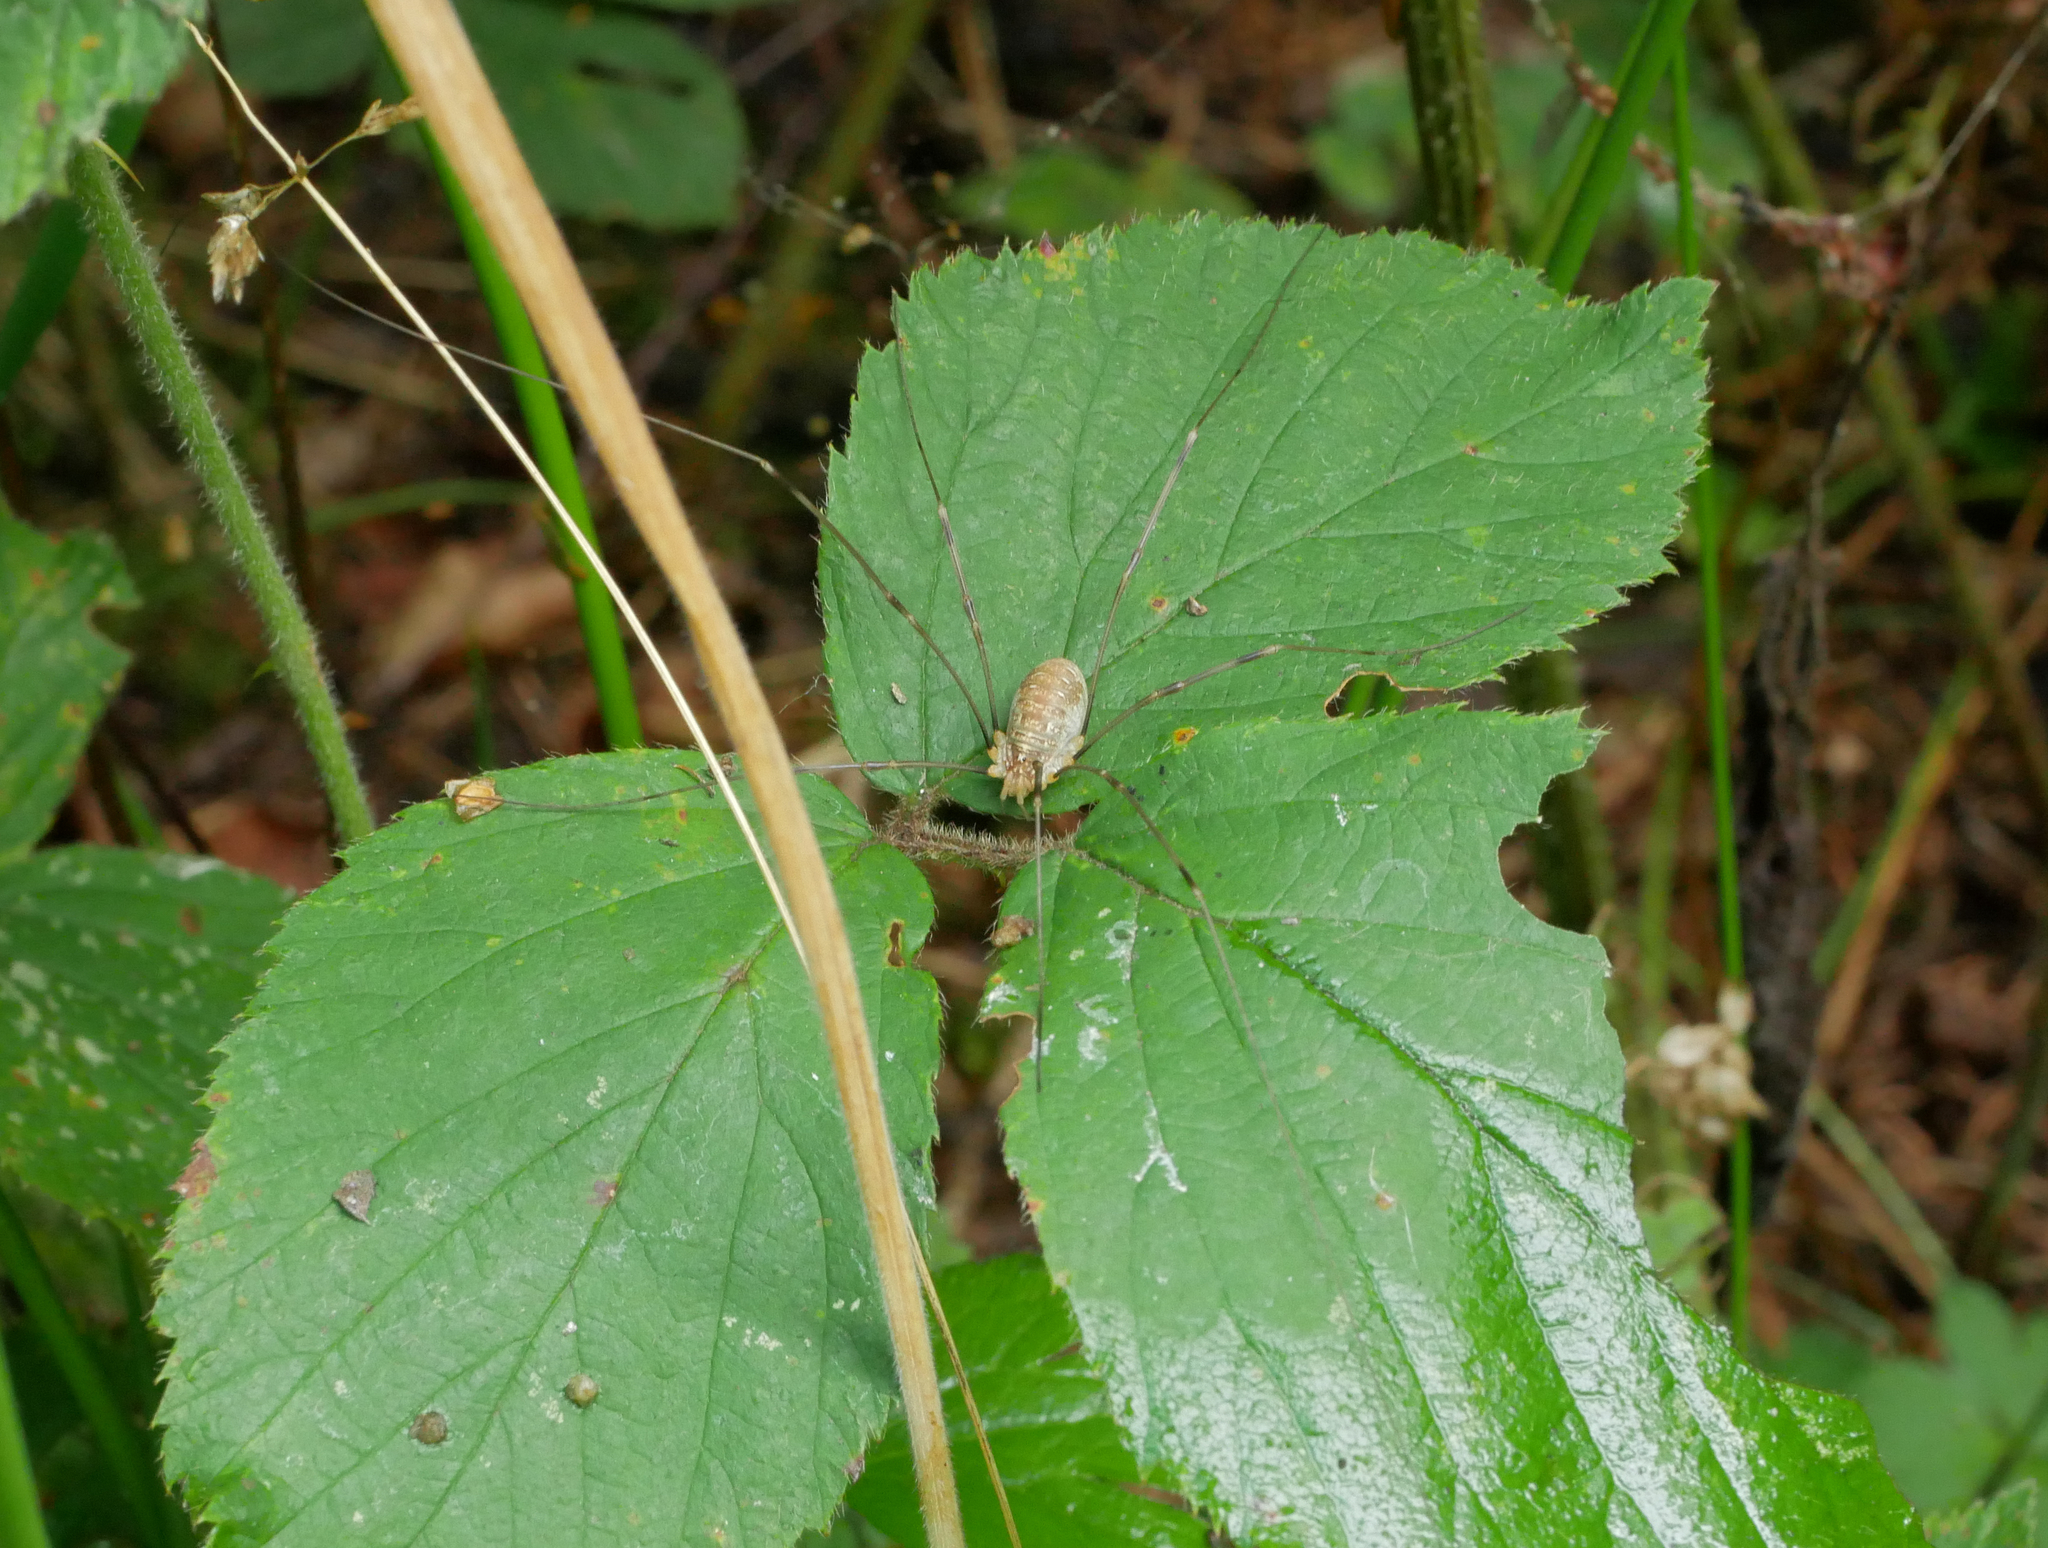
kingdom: Animalia
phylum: Arthropoda
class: Arachnida
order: Opiliones
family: Phalangiidae
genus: Opilio
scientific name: Opilio canestrinii
